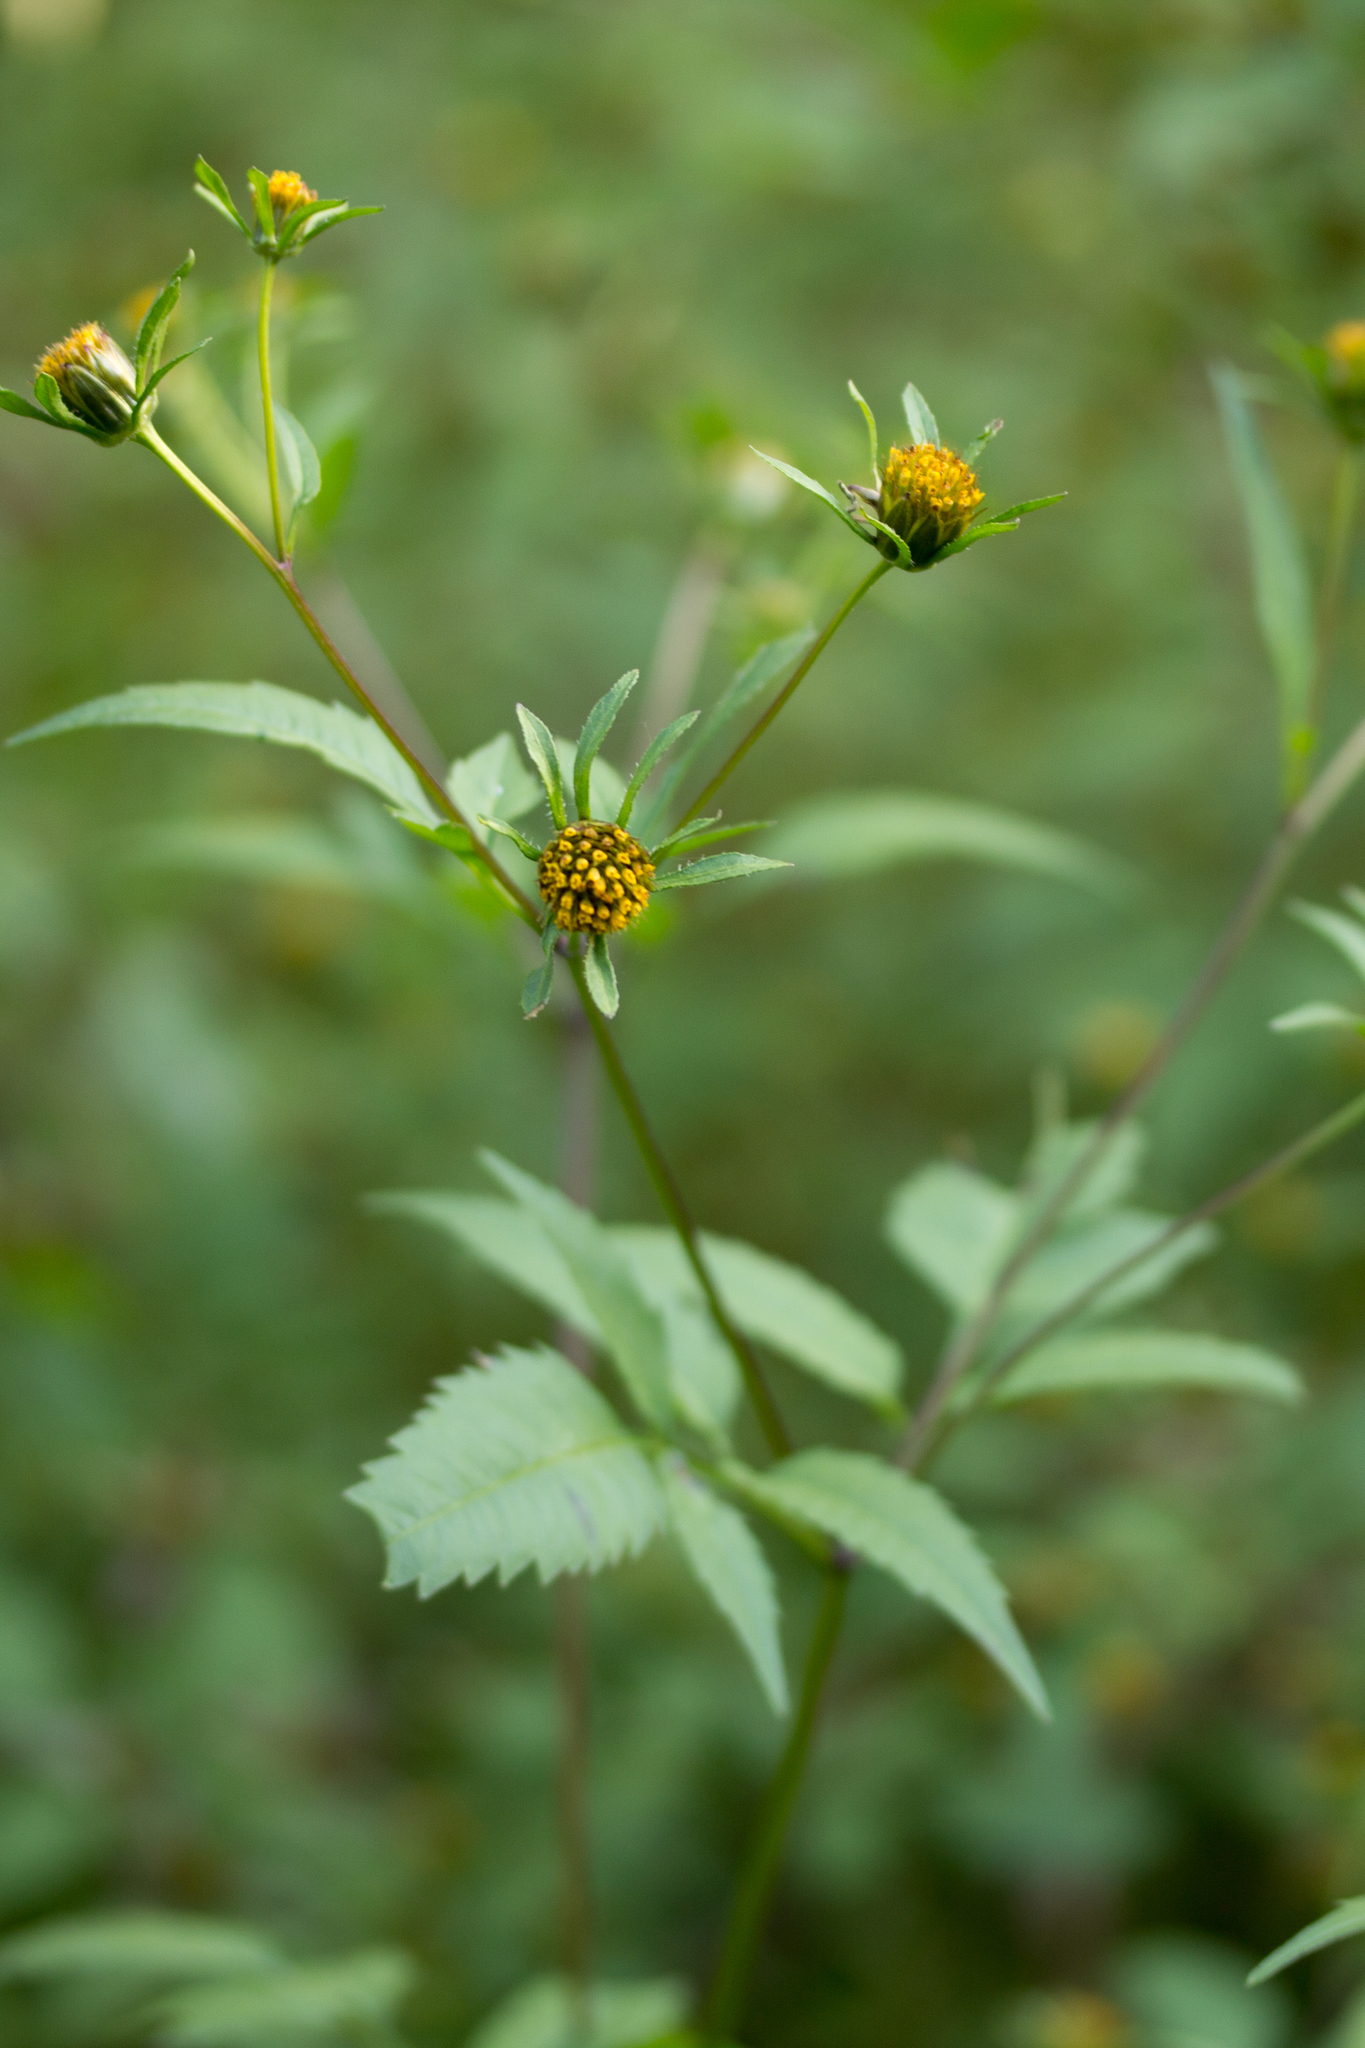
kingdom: Plantae
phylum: Tracheophyta
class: Magnoliopsida
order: Asterales
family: Asteraceae
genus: Bidens
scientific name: Bidens frondosa
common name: Beggarticks
